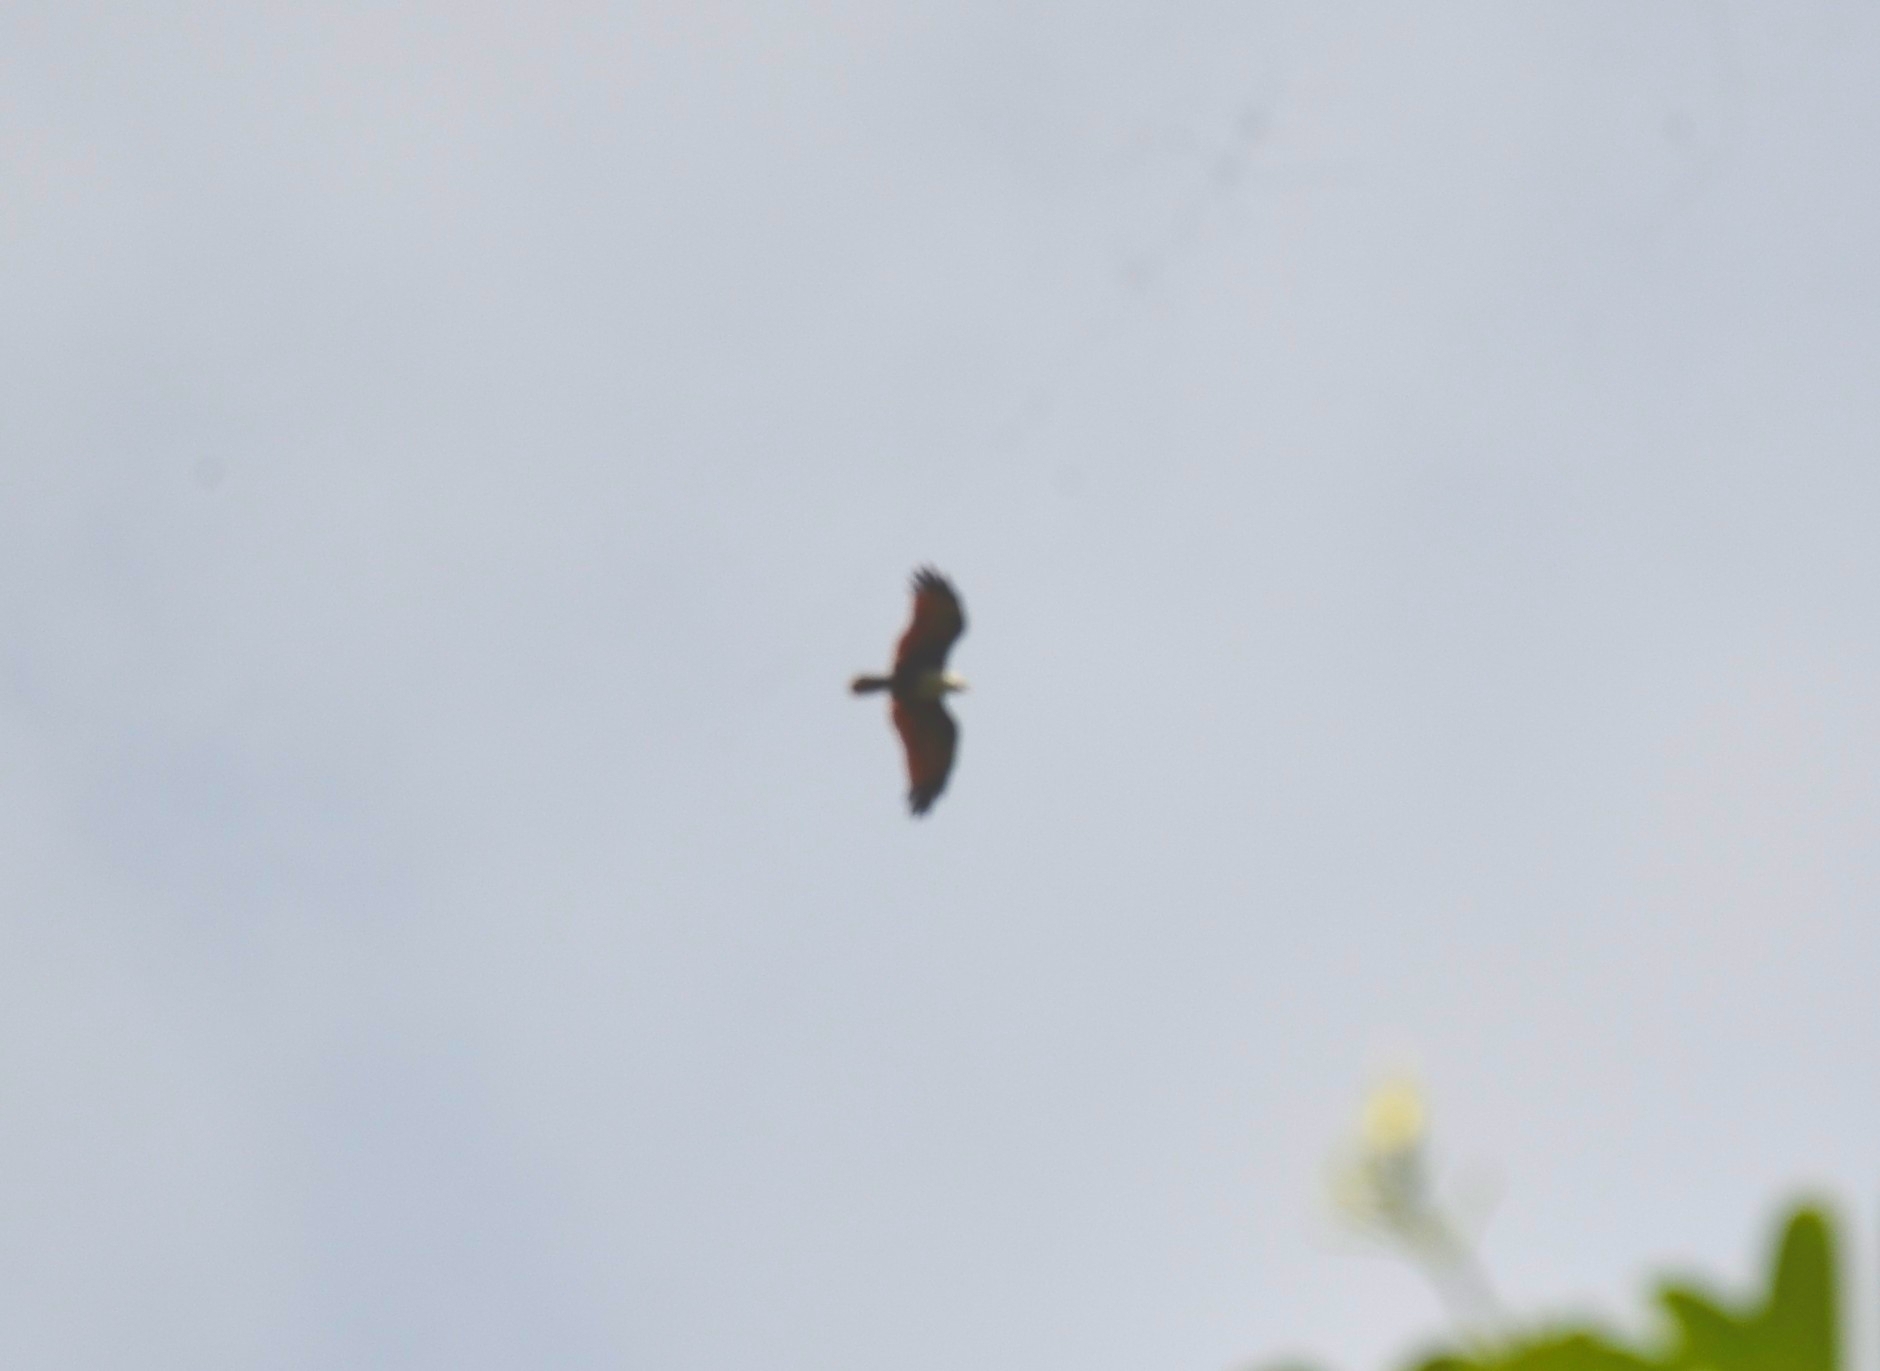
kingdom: Animalia
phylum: Chordata
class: Aves
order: Accipitriformes
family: Accipitridae
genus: Haliastur
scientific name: Haliastur indus
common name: Brahminy kite
